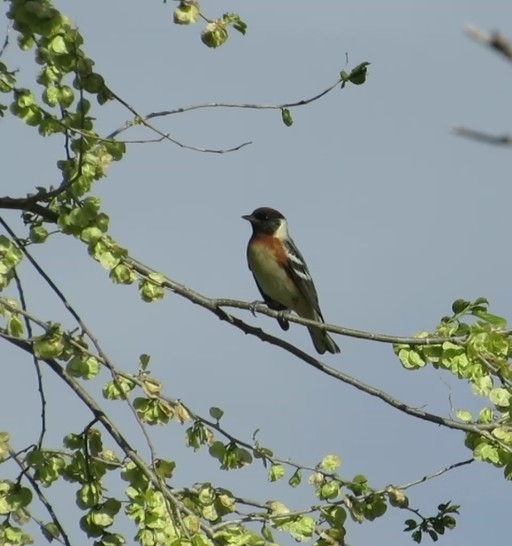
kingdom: Animalia
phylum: Chordata
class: Aves
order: Passeriformes
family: Parulidae
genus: Setophaga
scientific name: Setophaga castanea
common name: Bay-breasted warbler
